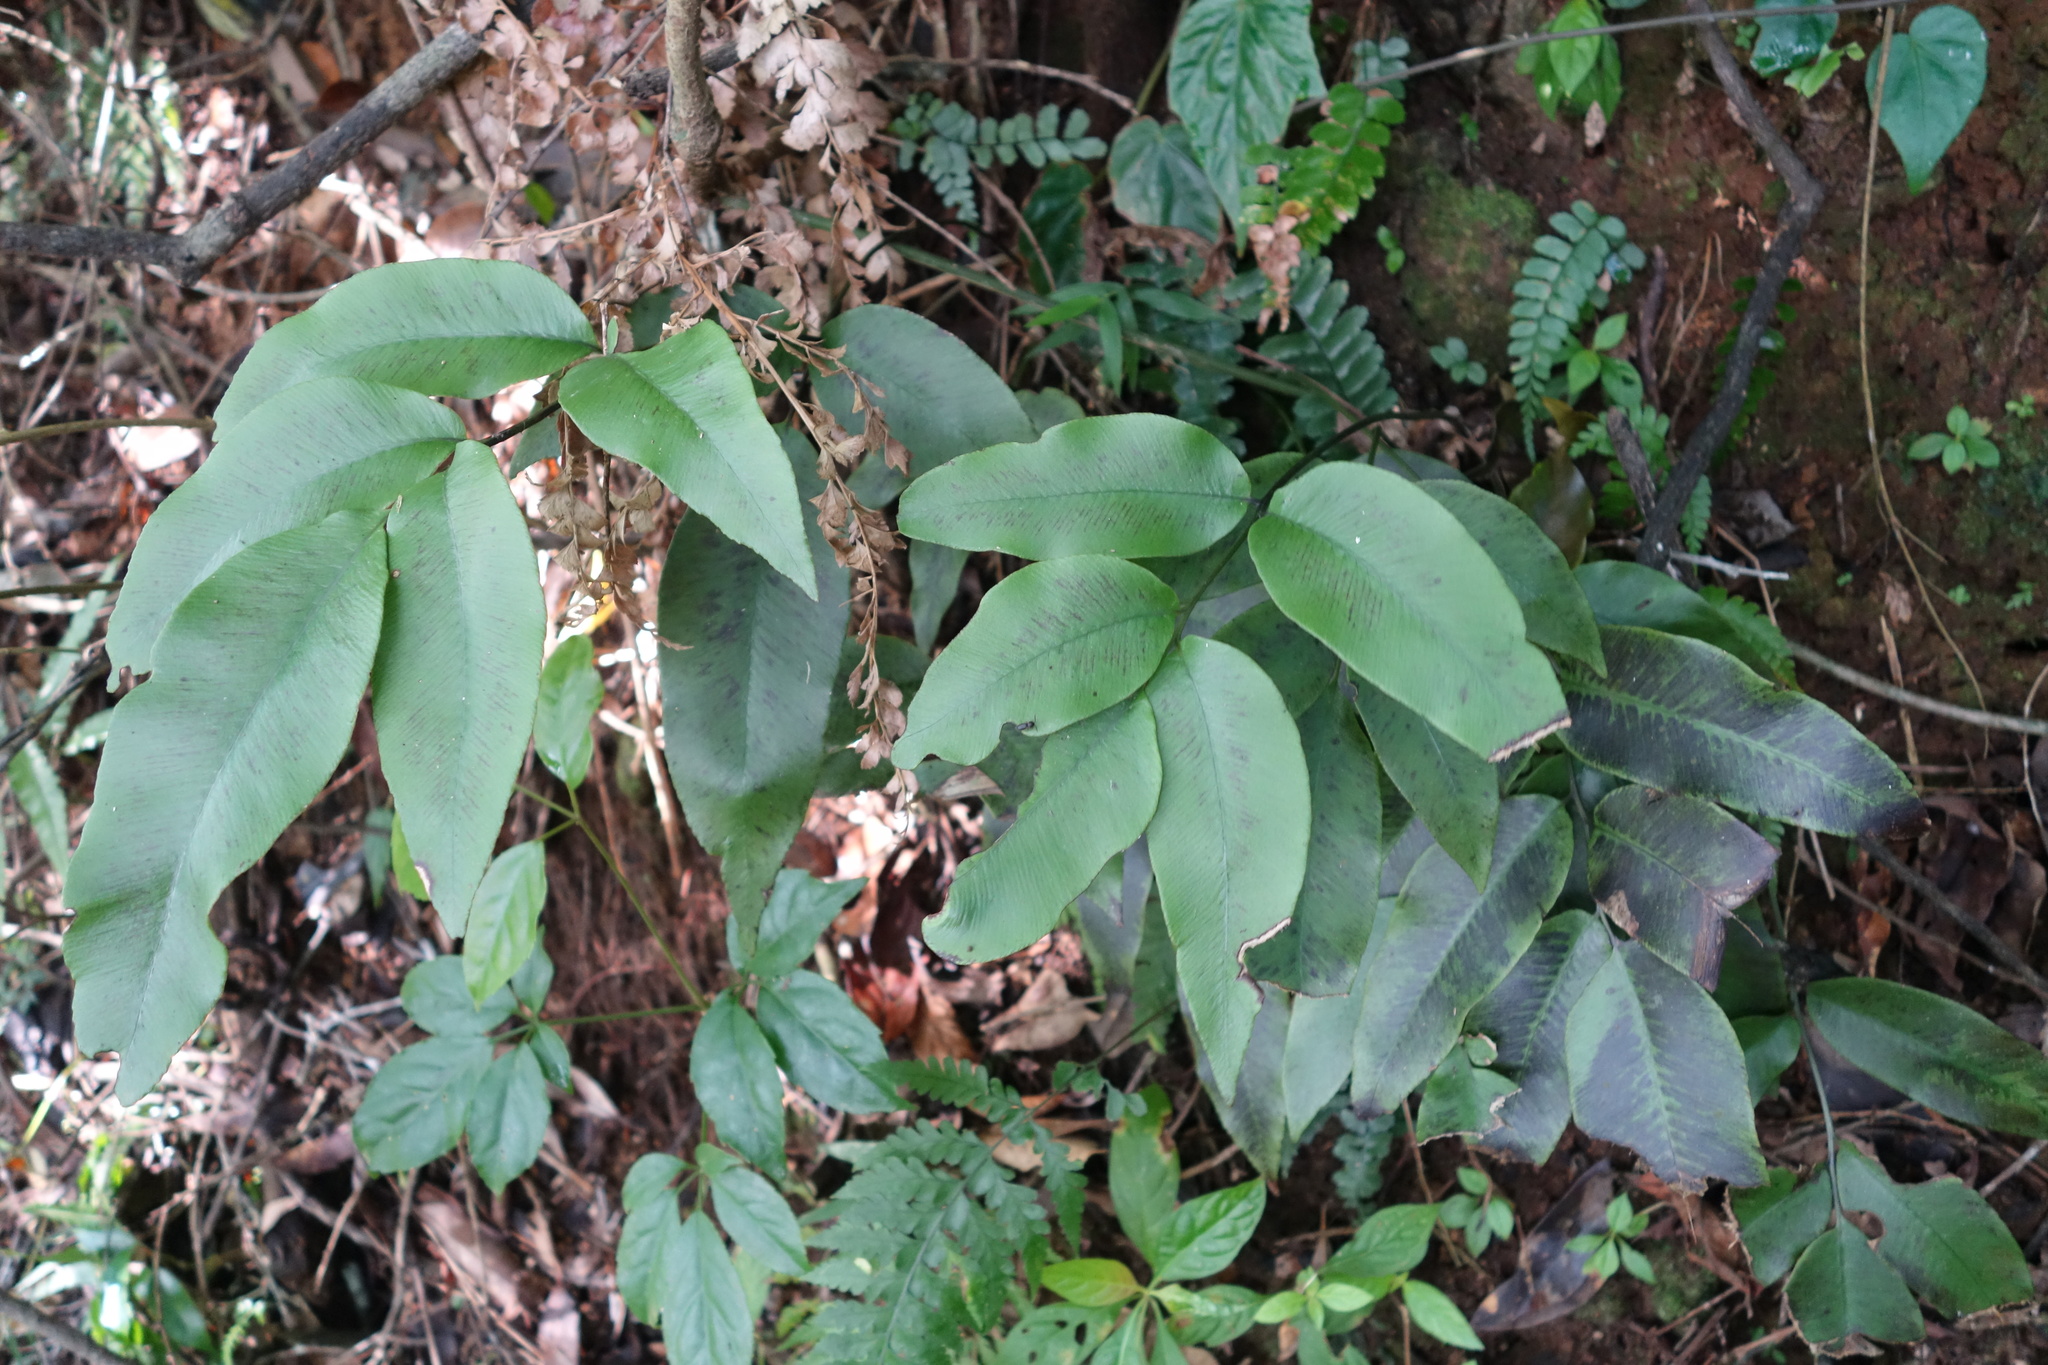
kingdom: Plantae
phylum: Tracheophyta
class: Polypodiopsida
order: Polypodiales
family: Athyriaceae
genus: Diplazium
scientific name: Diplazium lineolatum
